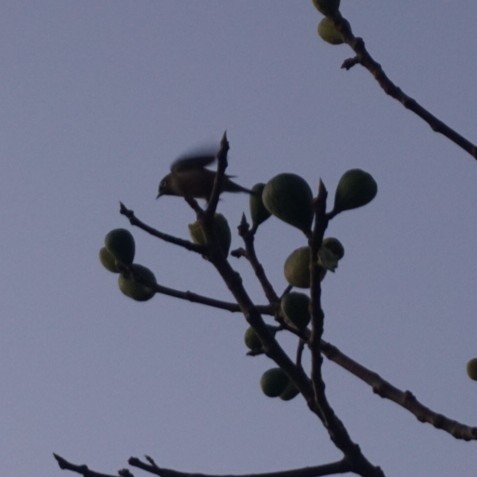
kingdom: Animalia
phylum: Chordata
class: Aves
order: Passeriformes
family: Zosteropidae
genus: Zosterops
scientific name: Zosterops lateralis
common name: Silvereye
